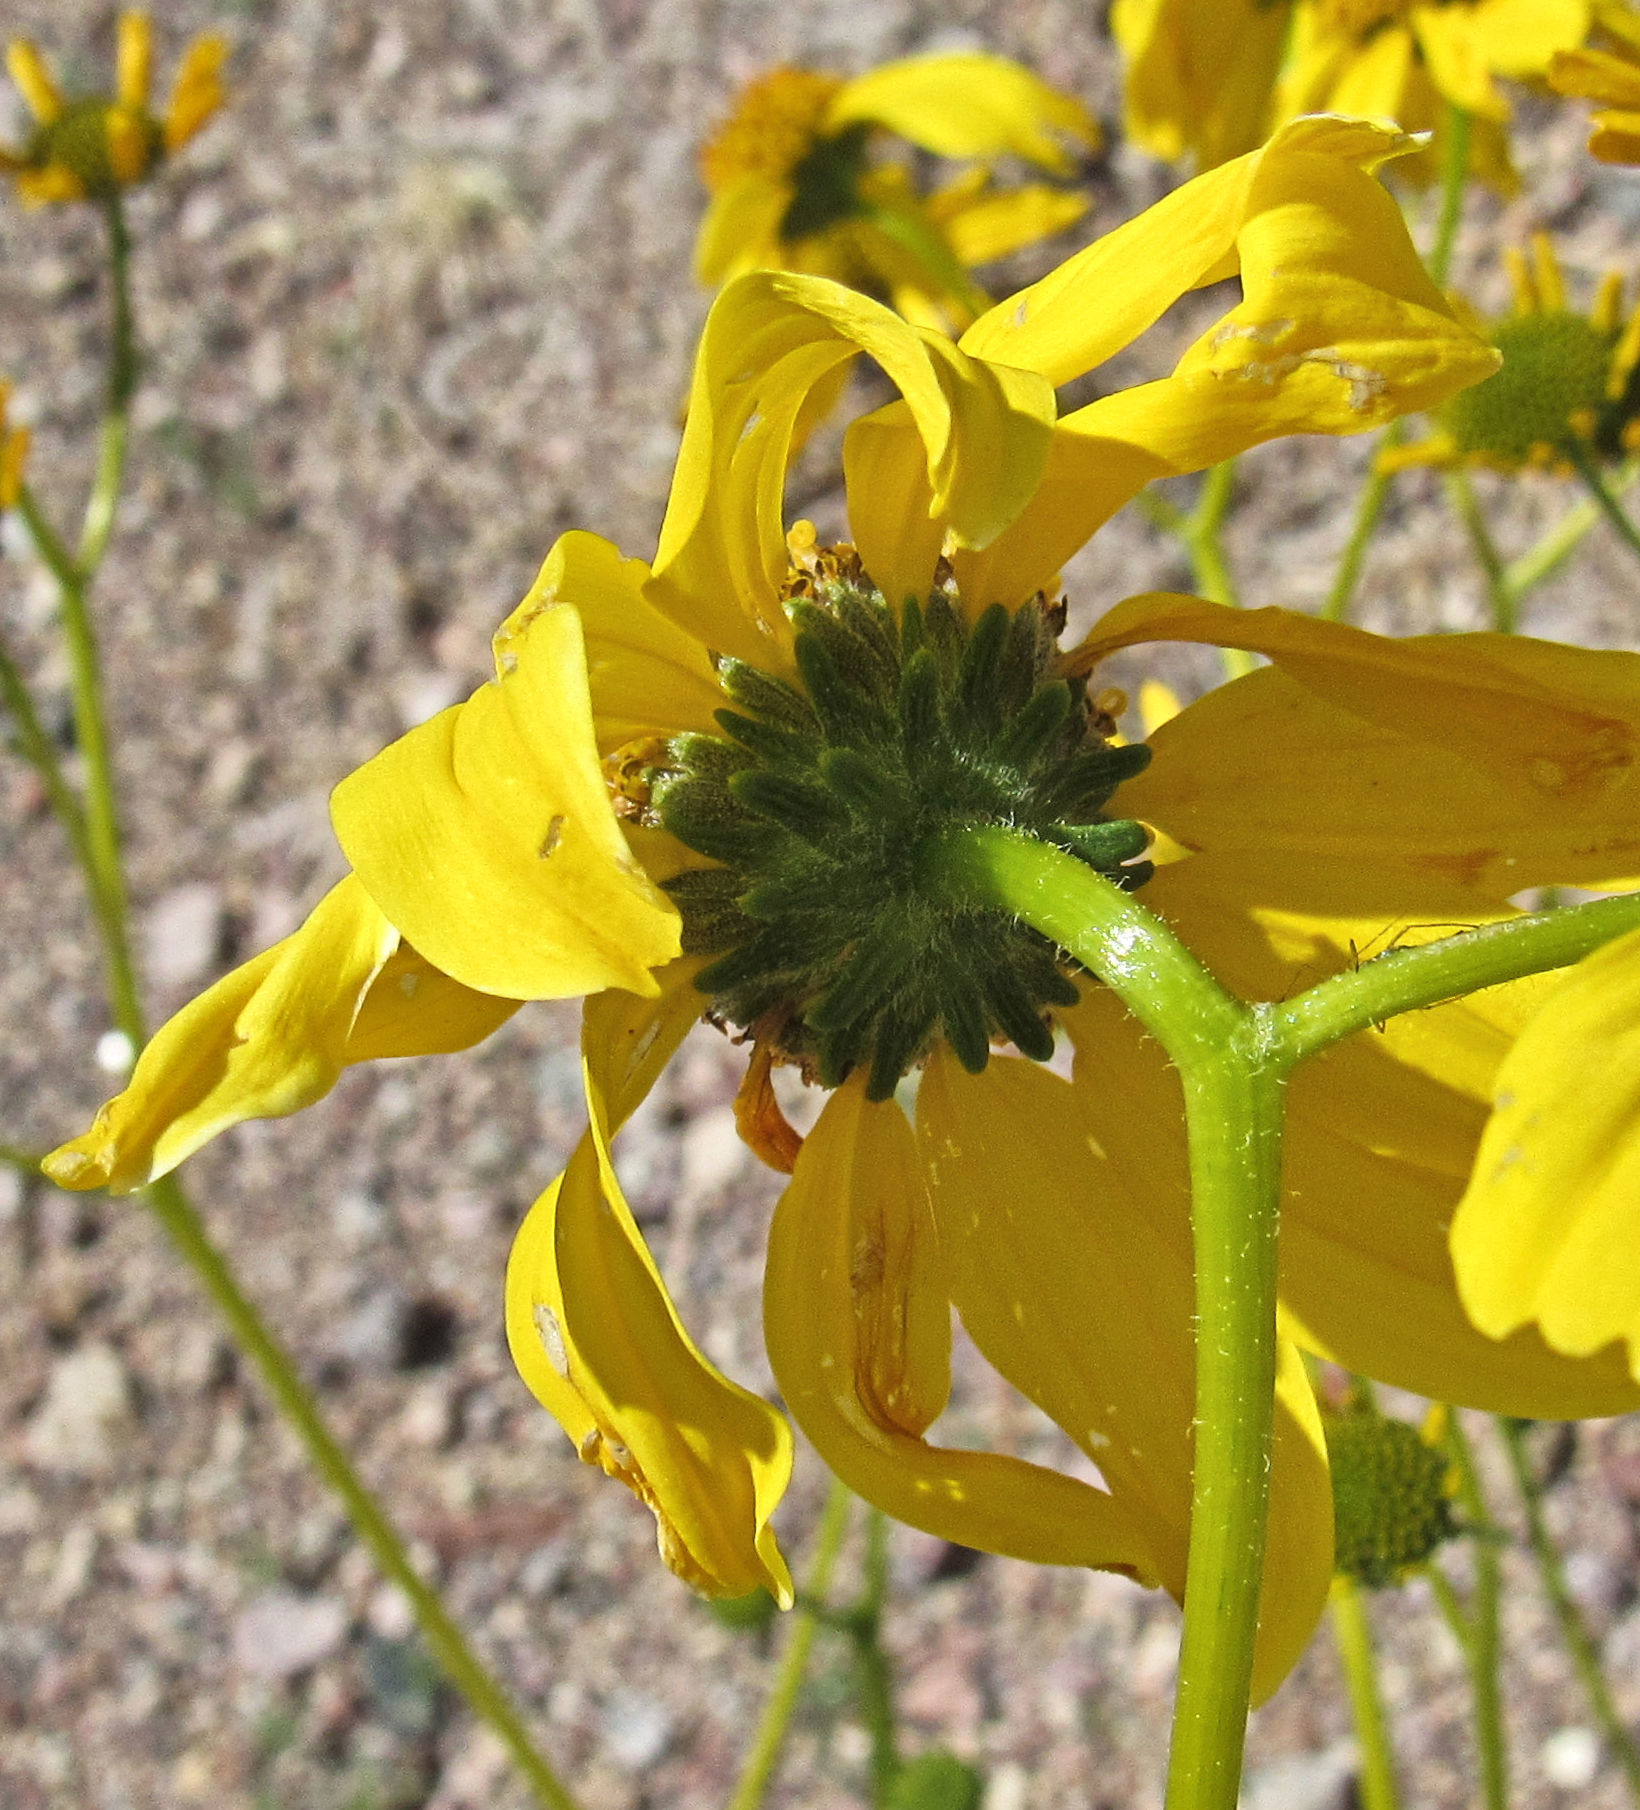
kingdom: Plantae
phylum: Tracheophyta
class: Magnoliopsida
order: Asterales
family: Asteraceae
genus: Encelia
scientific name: Encelia farinosa
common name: Brittlebush
